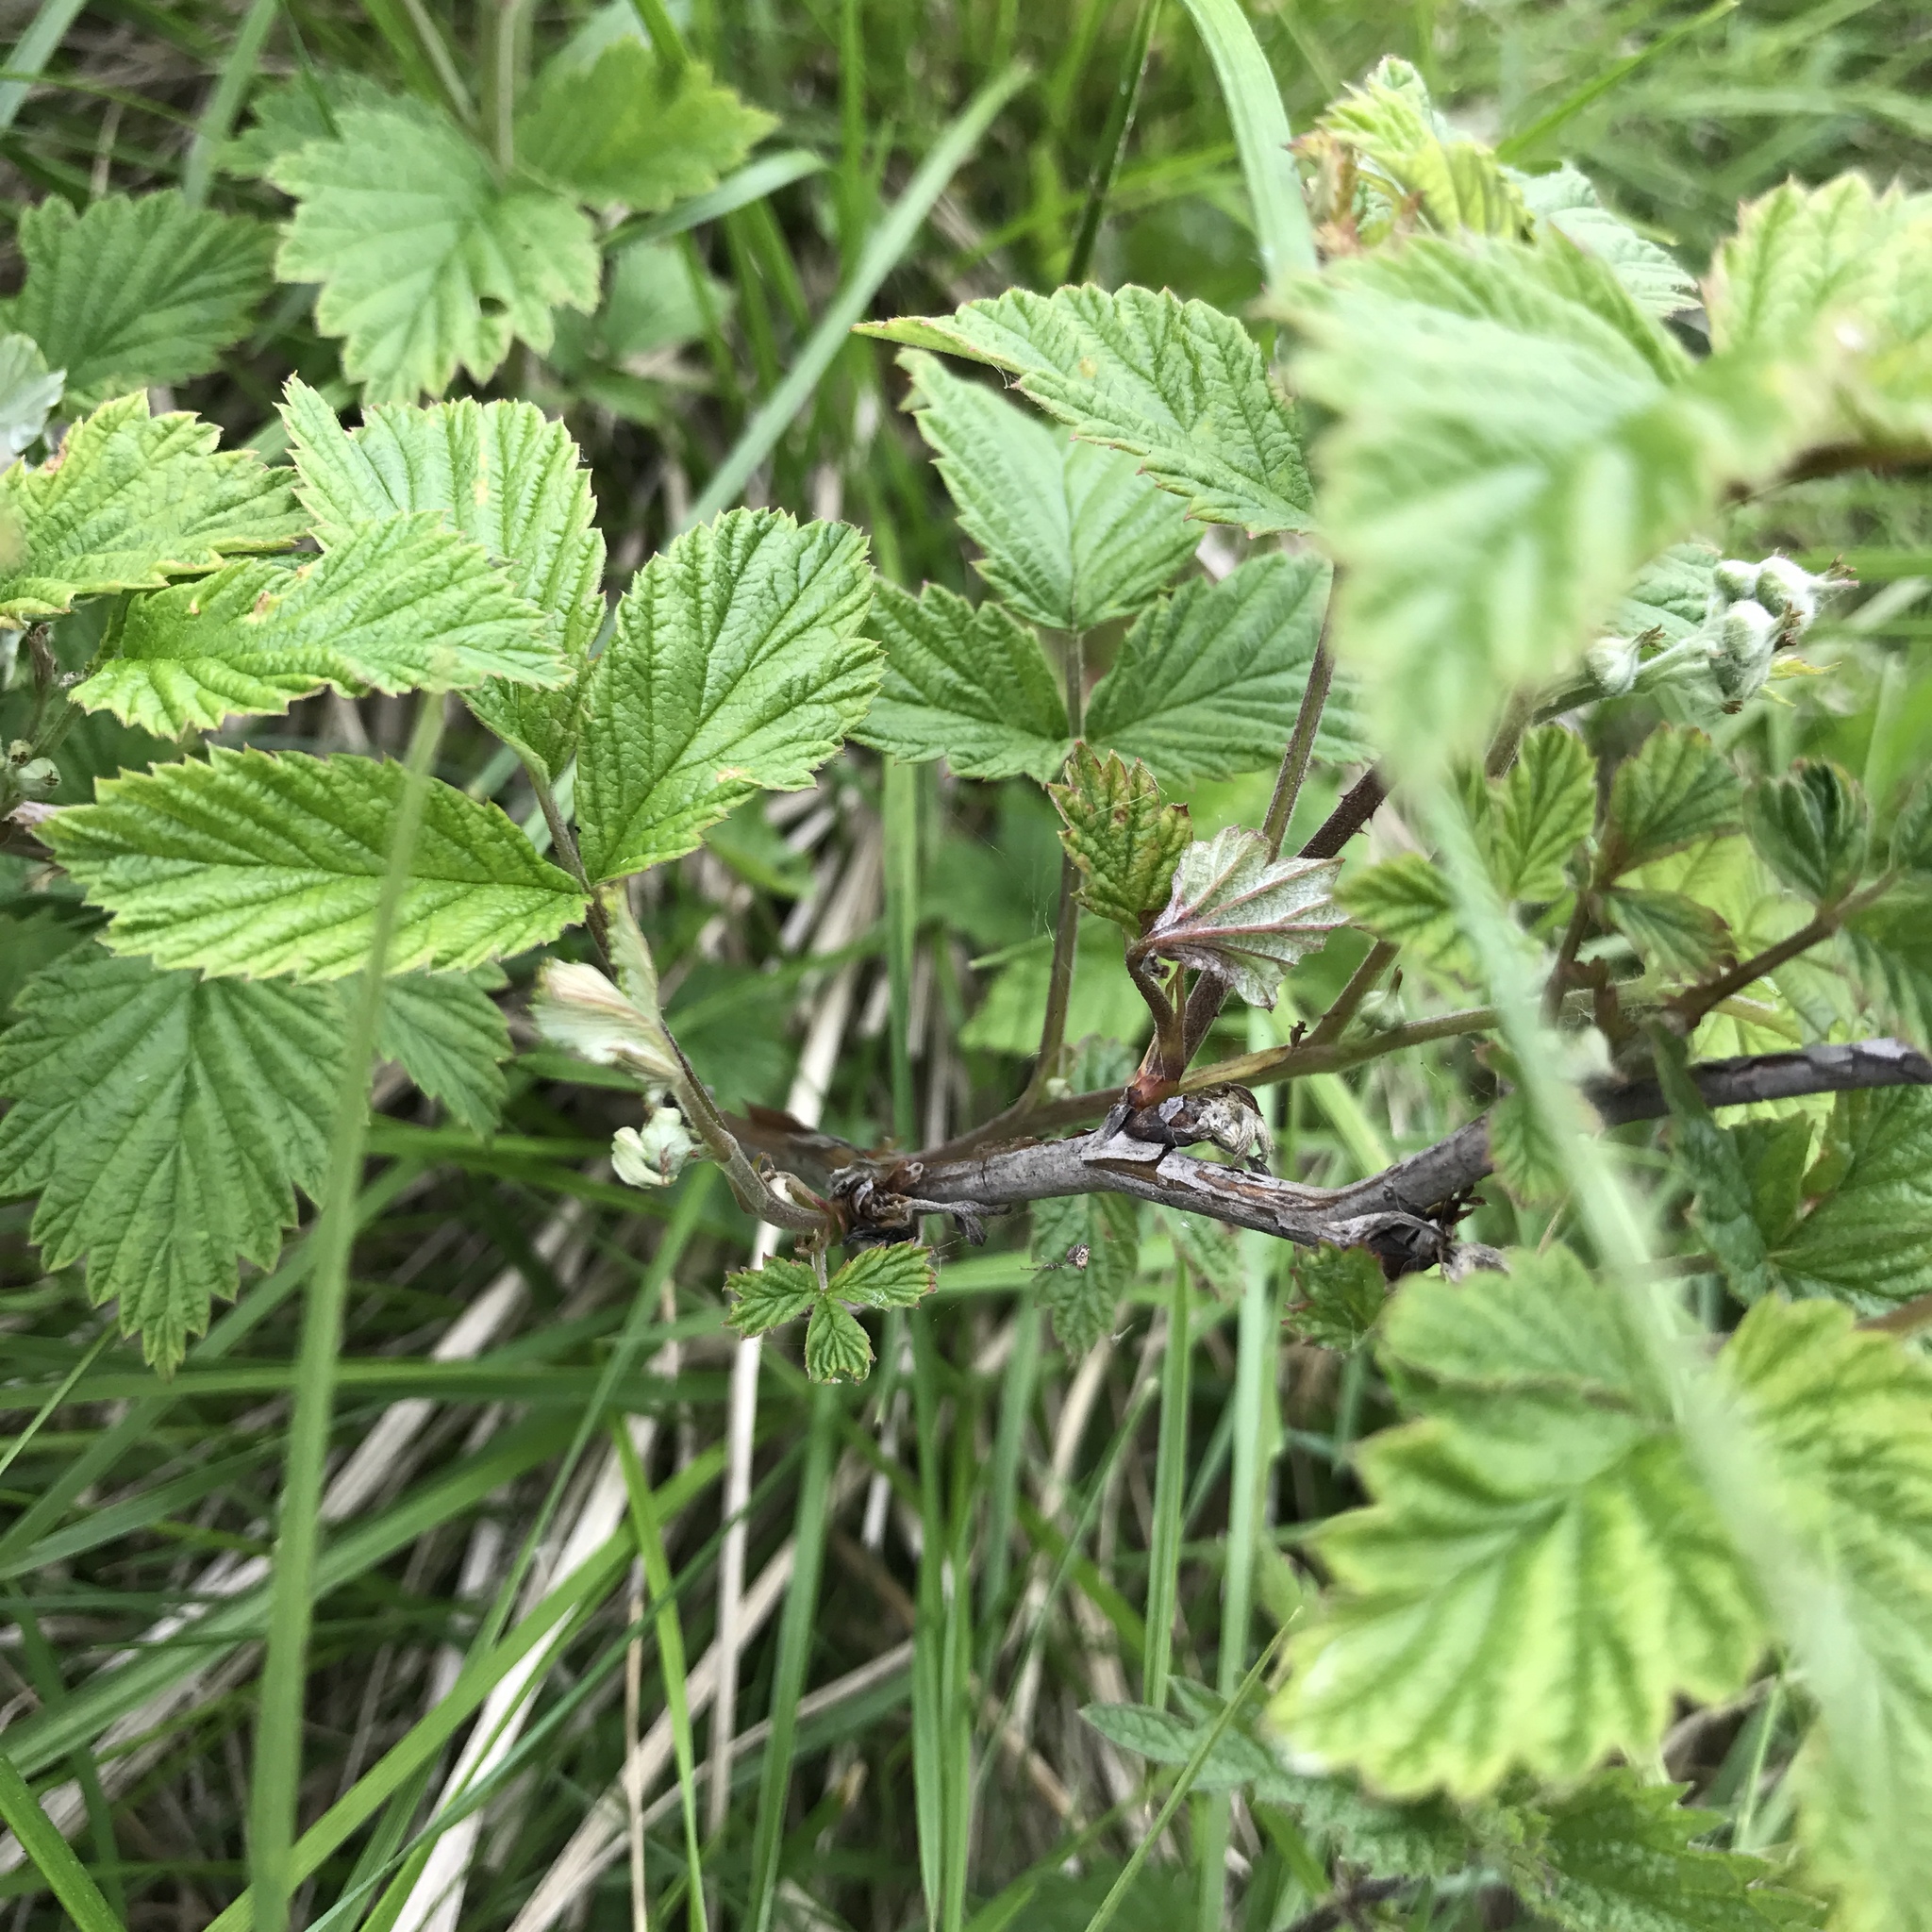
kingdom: Plantae
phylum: Tracheophyta
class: Magnoliopsida
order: Rosales
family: Rosaceae
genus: Rubus
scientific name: Rubus idaeus
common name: Raspberry
